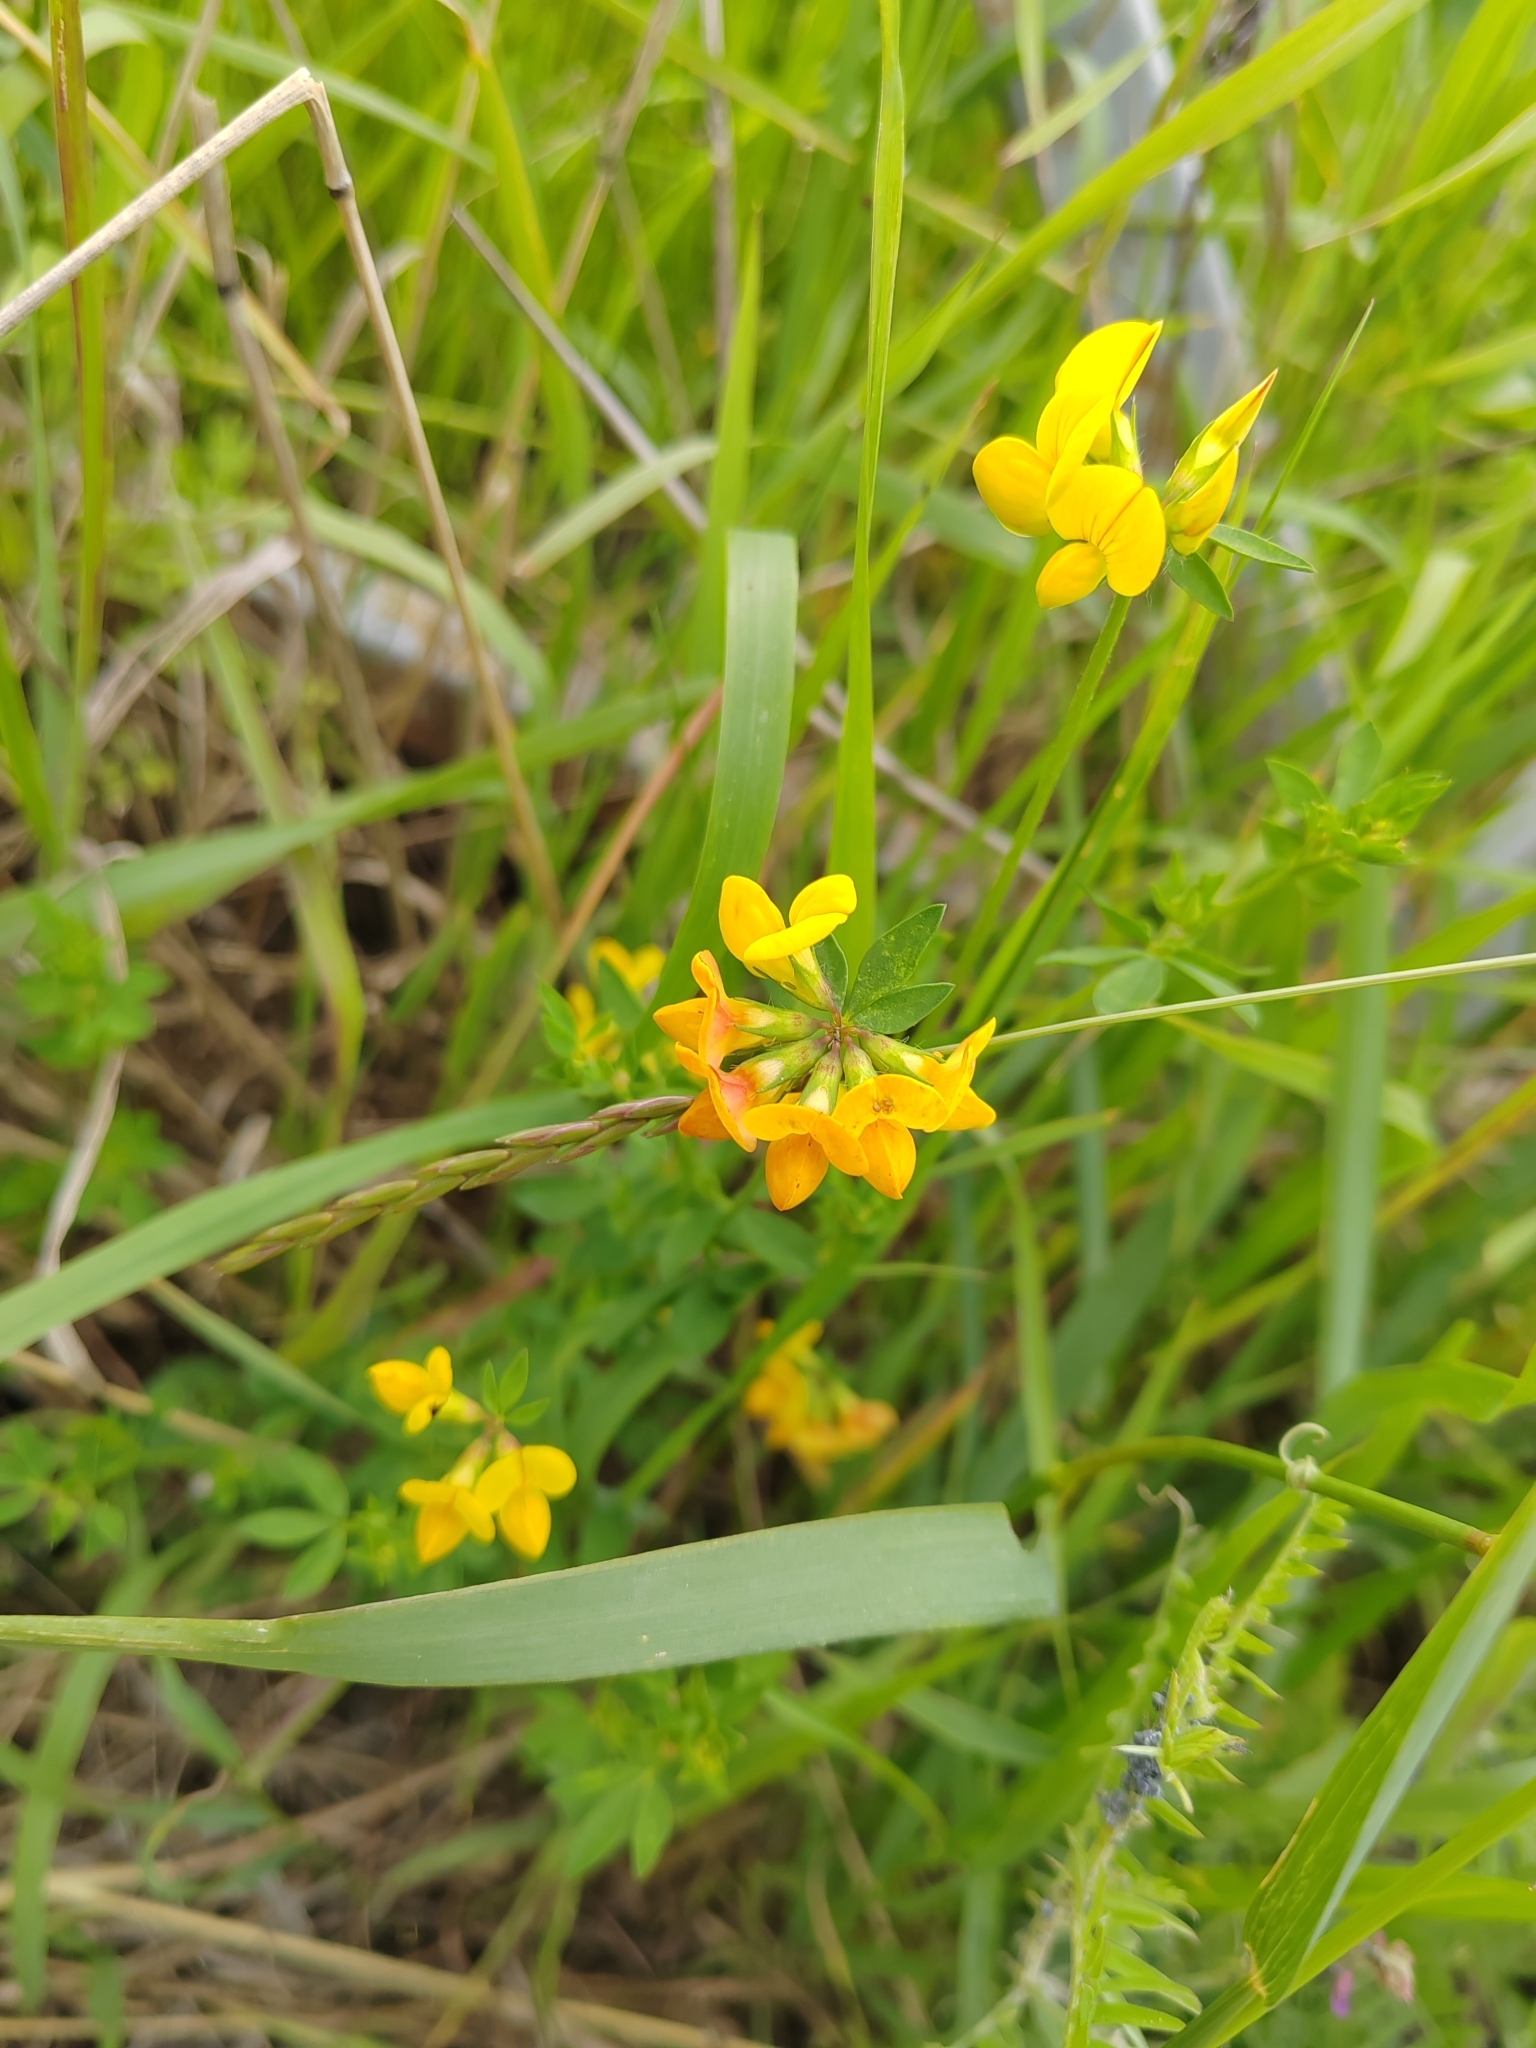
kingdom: Plantae
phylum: Tracheophyta
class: Magnoliopsida
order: Fabales
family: Fabaceae
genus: Lotus
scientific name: Lotus corniculatus
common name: Common bird's-foot-trefoil
